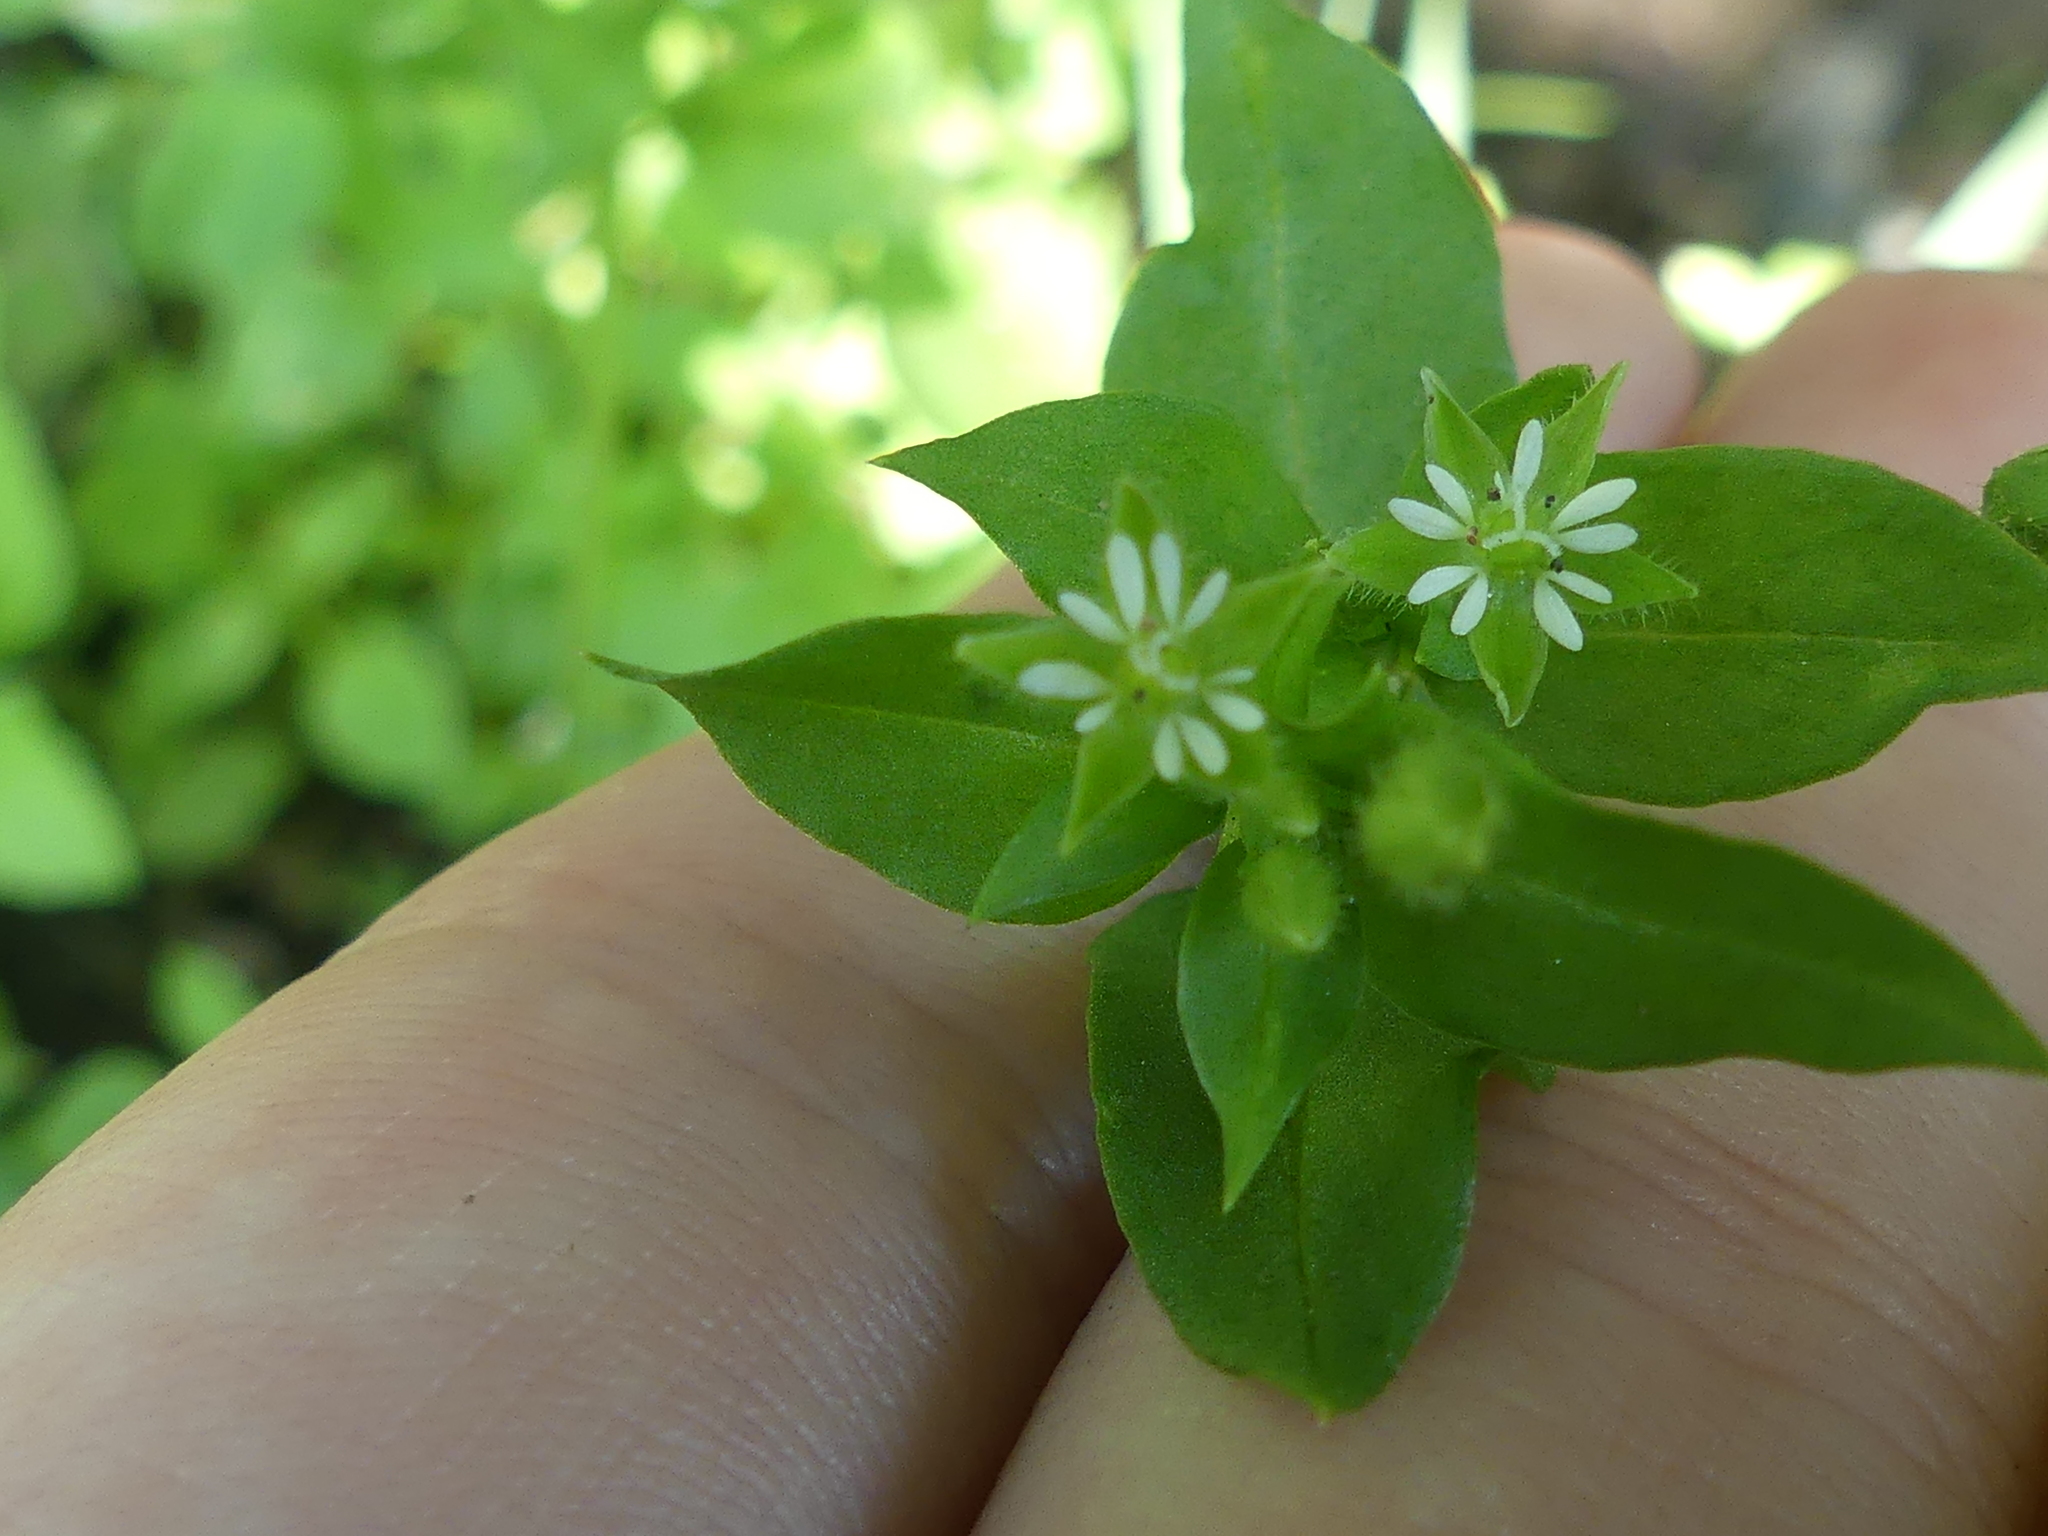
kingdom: Plantae
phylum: Tracheophyta
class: Magnoliopsida
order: Caryophyllales
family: Caryophyllaceae
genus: Stellaria
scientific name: Stellaria media
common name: Common chickweed
